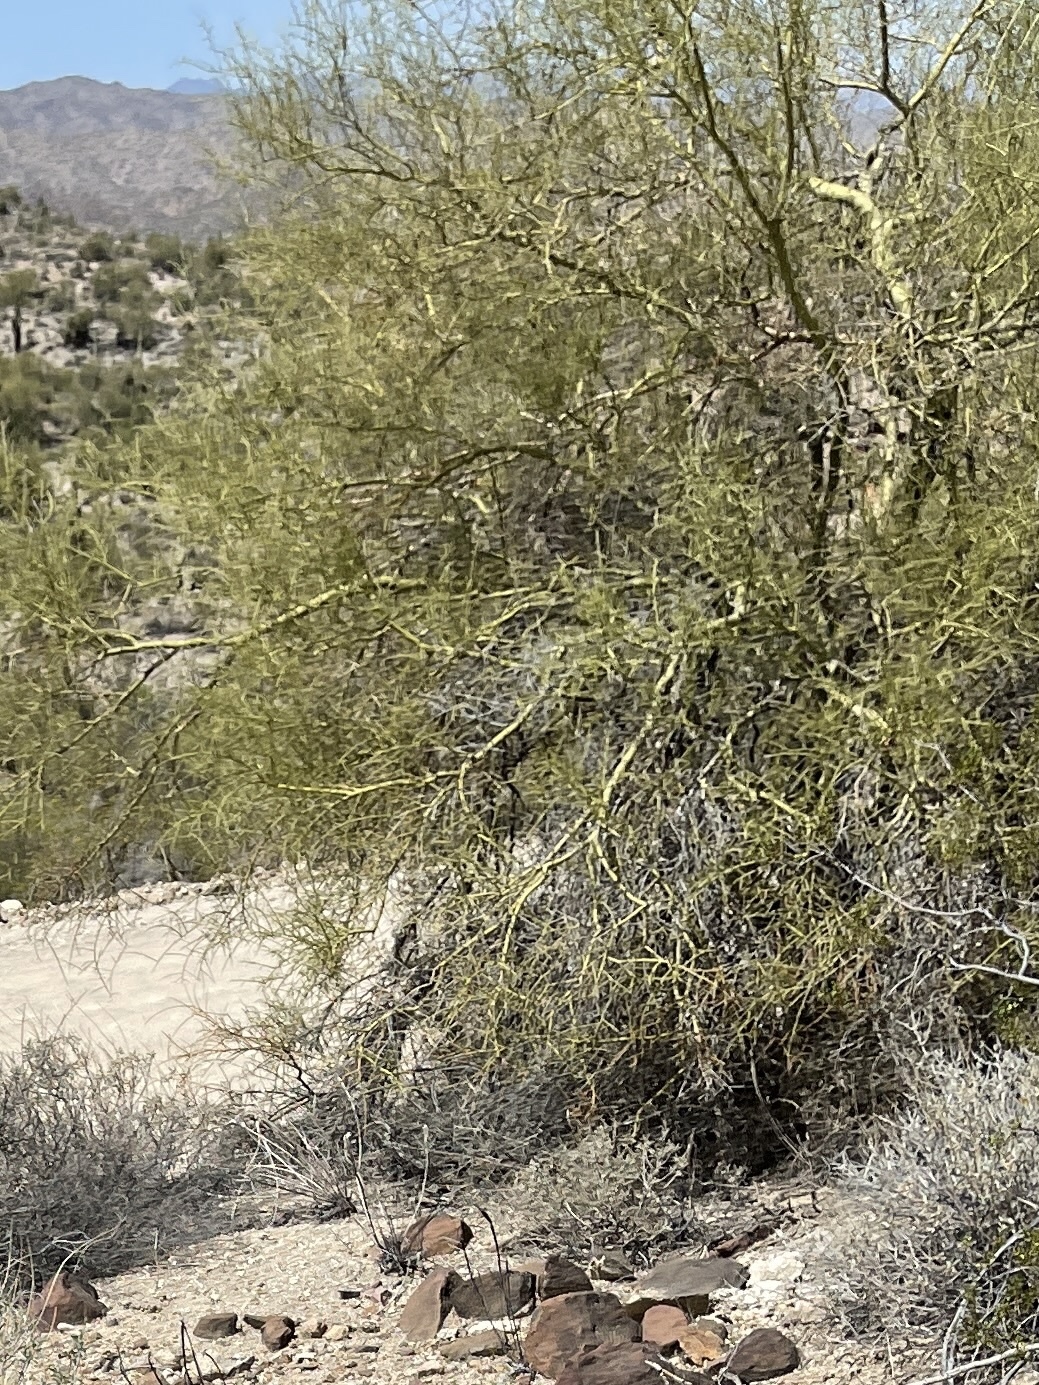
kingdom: Plantae
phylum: Tracheophyta
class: Magnoliopsida
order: Fabales
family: Fabaceae
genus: Parkinsonia
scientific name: Parkinsonia microphylla
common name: Yellow paloverde
